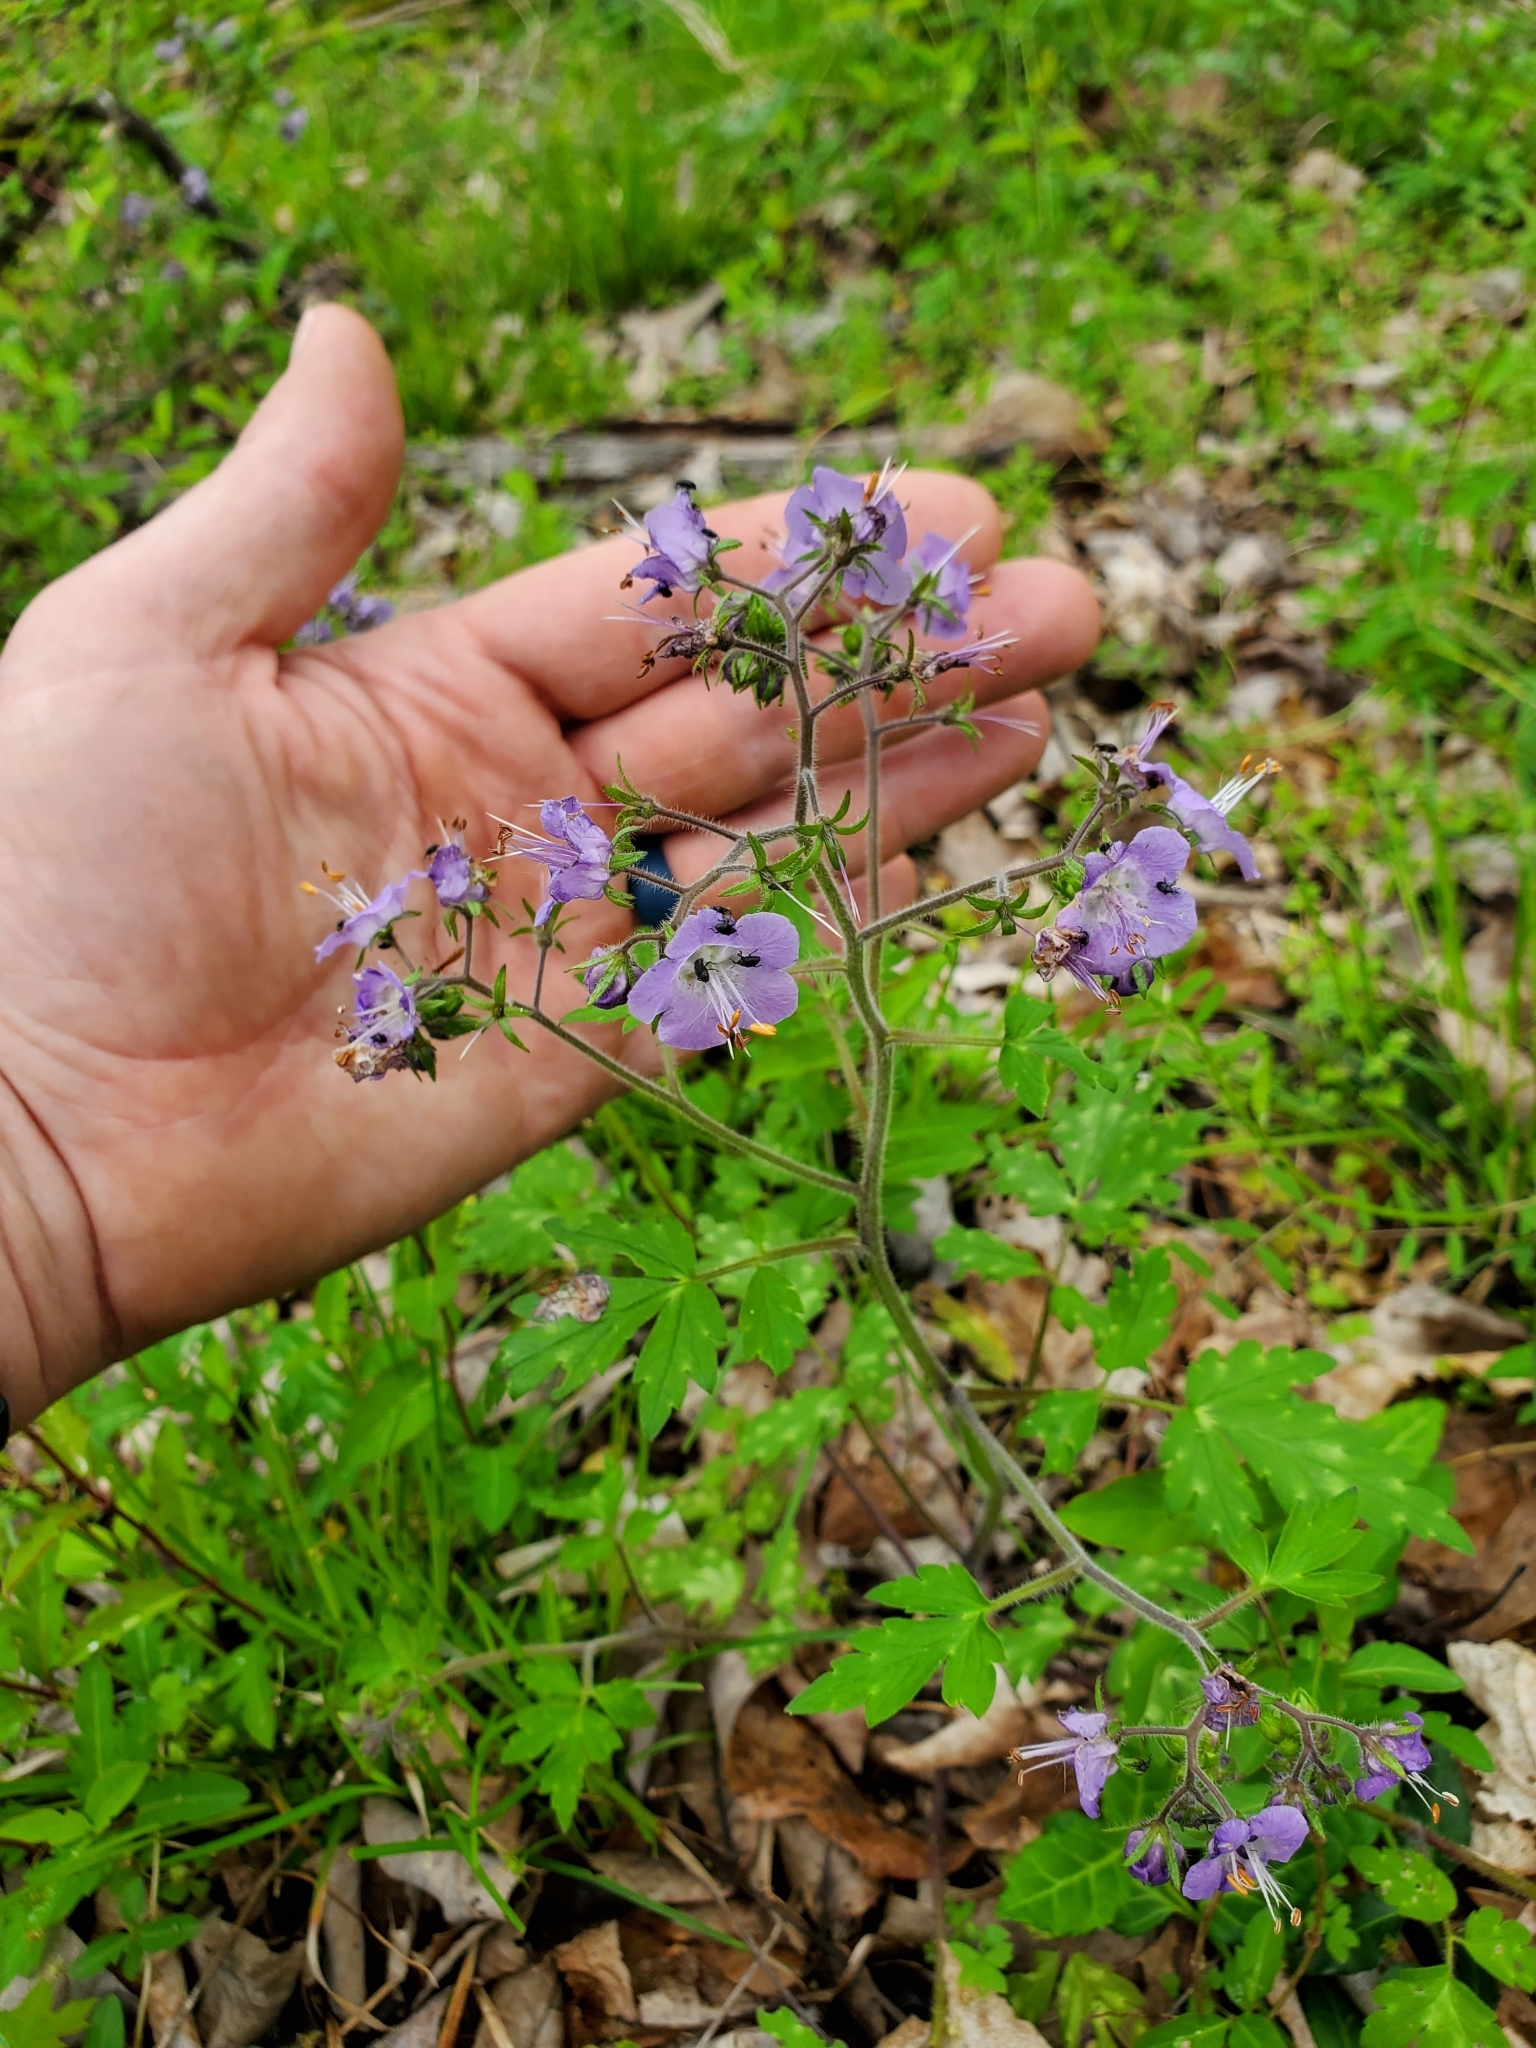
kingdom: Plantae
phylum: Tracheophyta
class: Magnoliopsida
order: Boraginales
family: Hydrophyllaceae
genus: Phacelia
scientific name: Phacelia bipinnatifida
